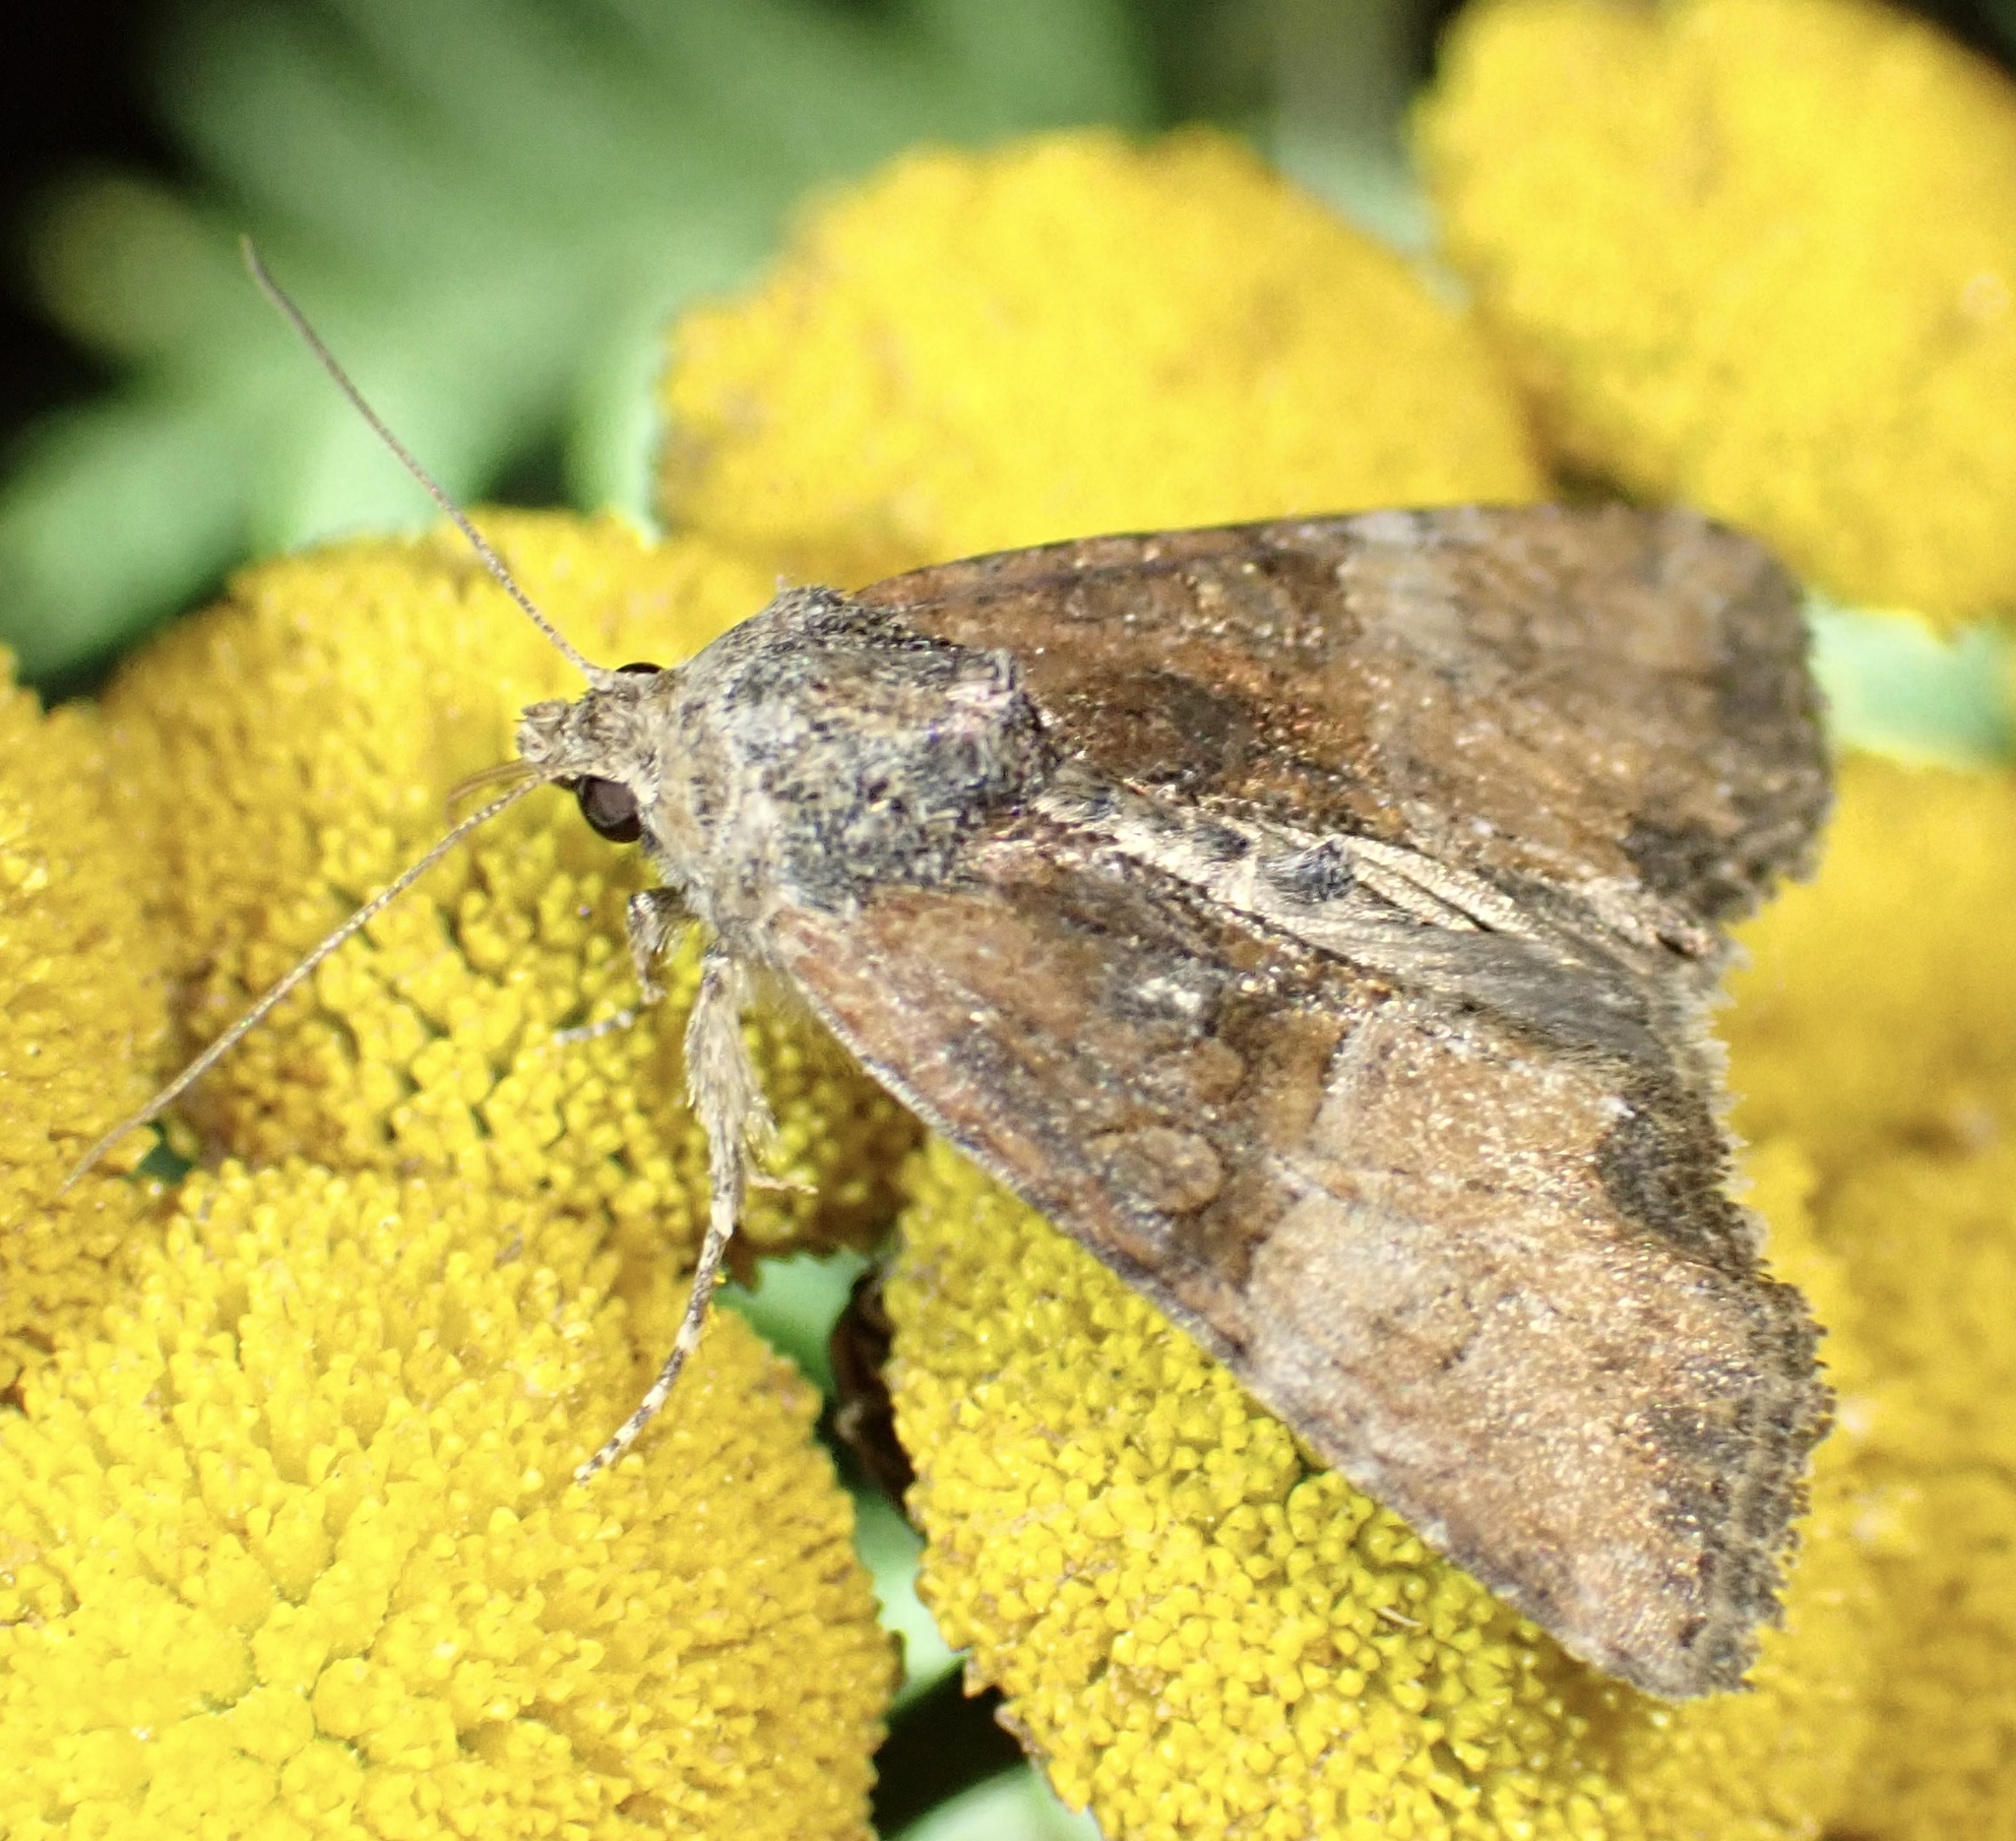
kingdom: Animalia
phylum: Arthropoda
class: Insecta
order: Lepidoptera
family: Noctuidae
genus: Mesoligia
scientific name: Mesoligia furuncula
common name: Cloaked minor
